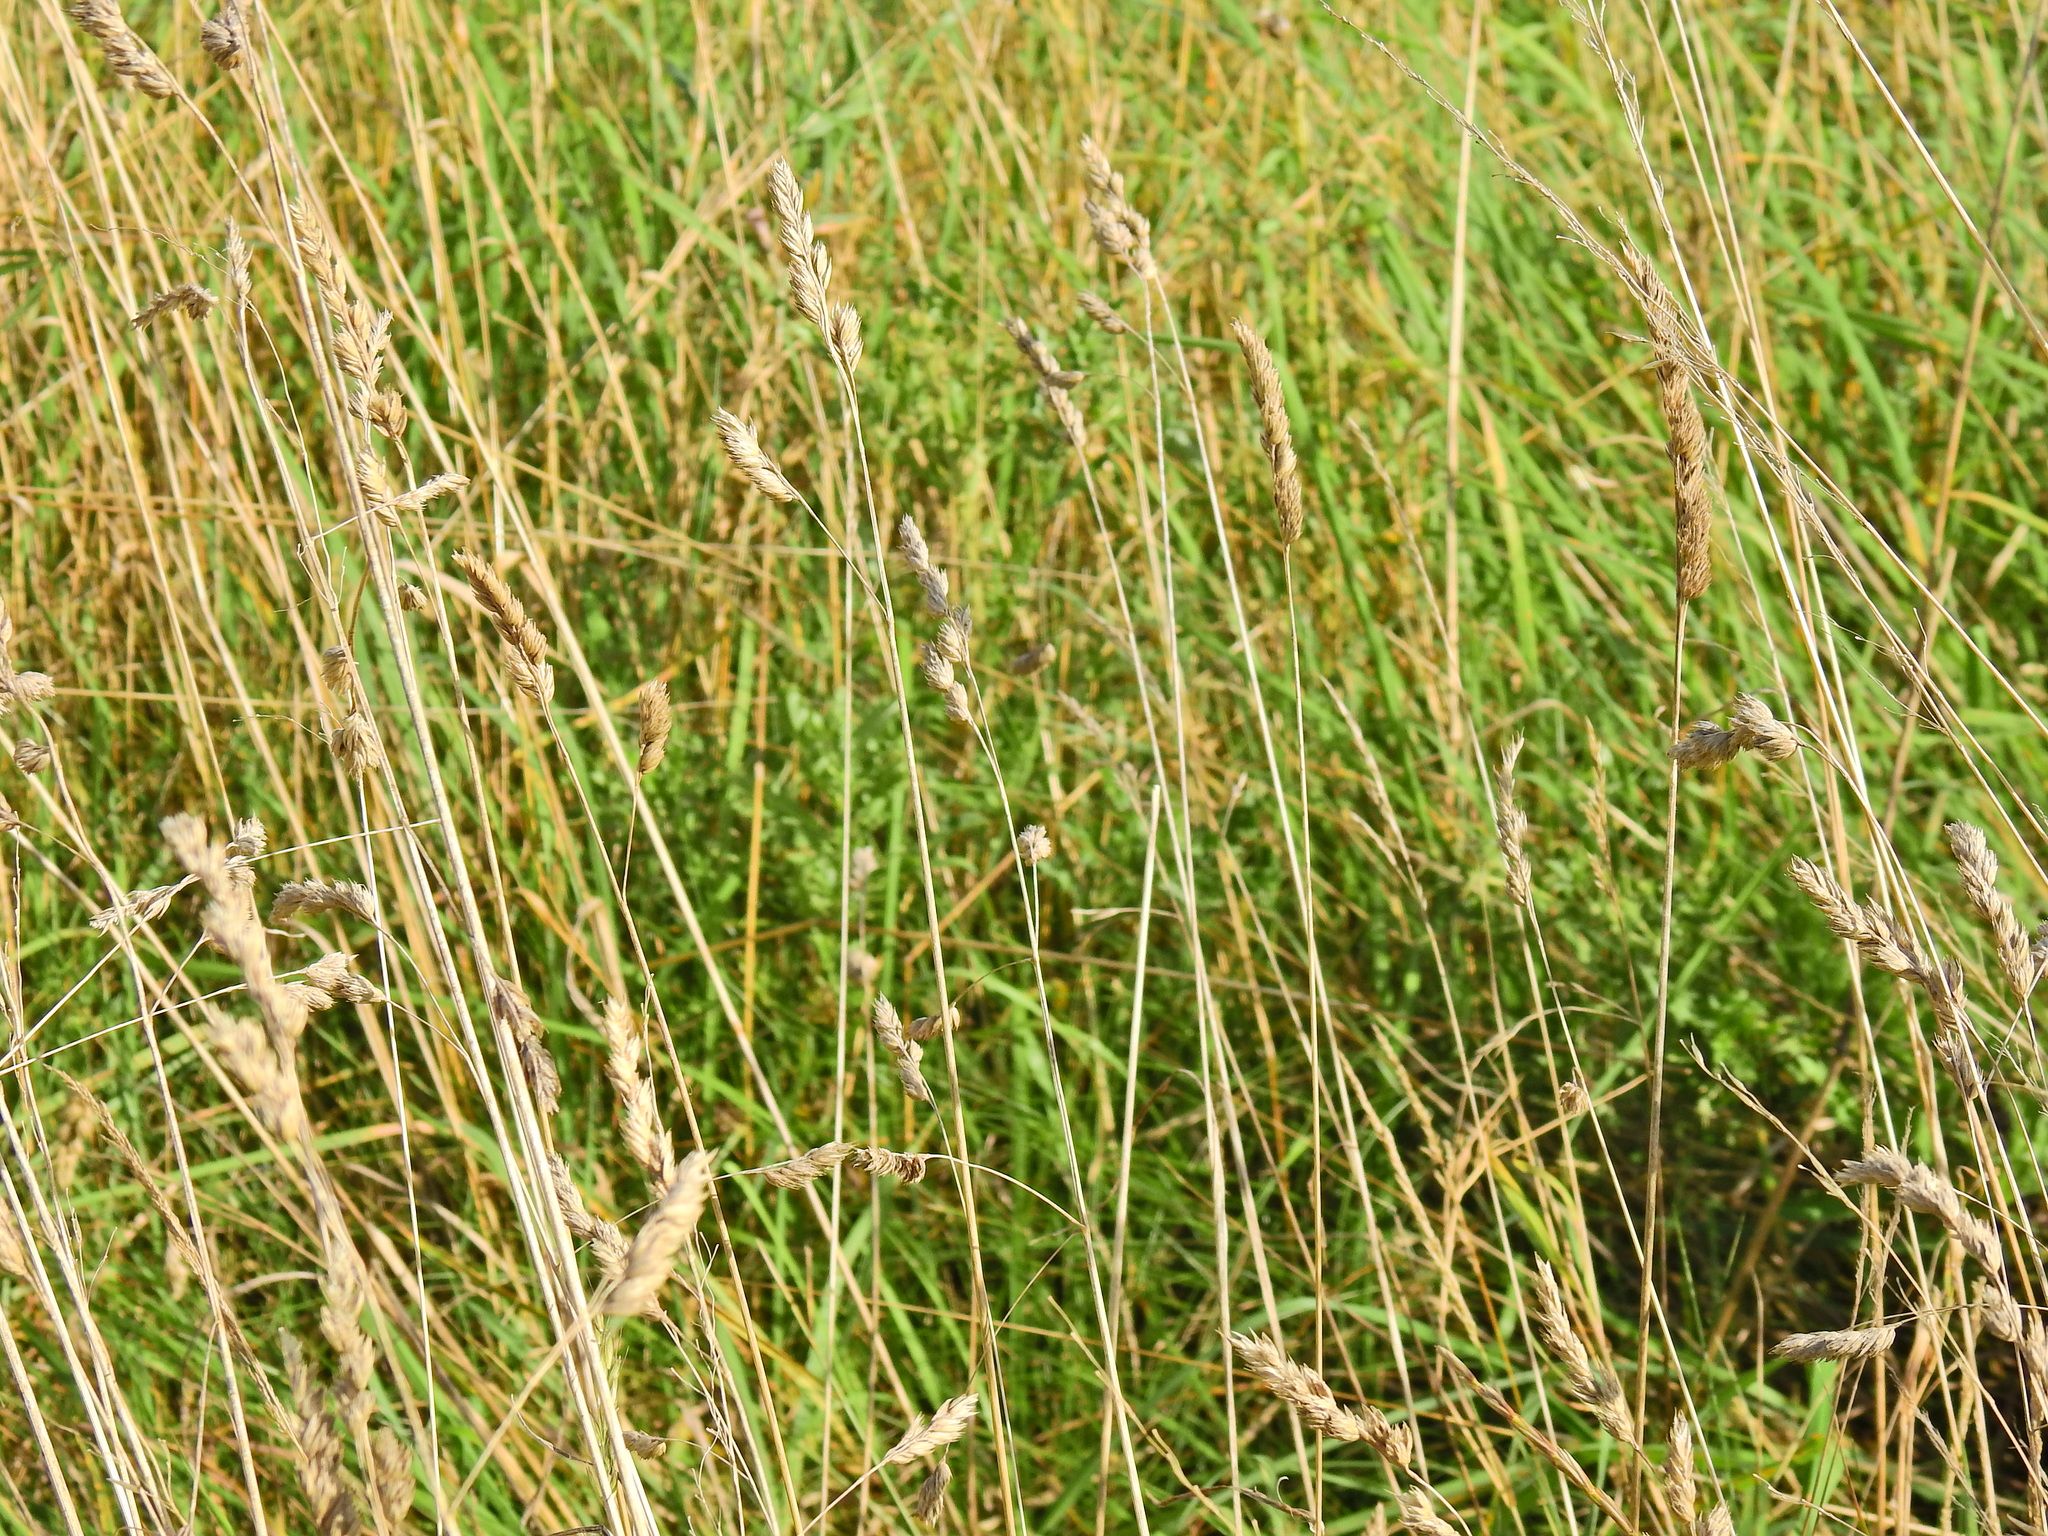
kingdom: Plantae
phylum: Tracheophyta
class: Liliopsida
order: Poales
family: Poaceae
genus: Dactylis
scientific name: Dactylis glomerata
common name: Orchardgrass
